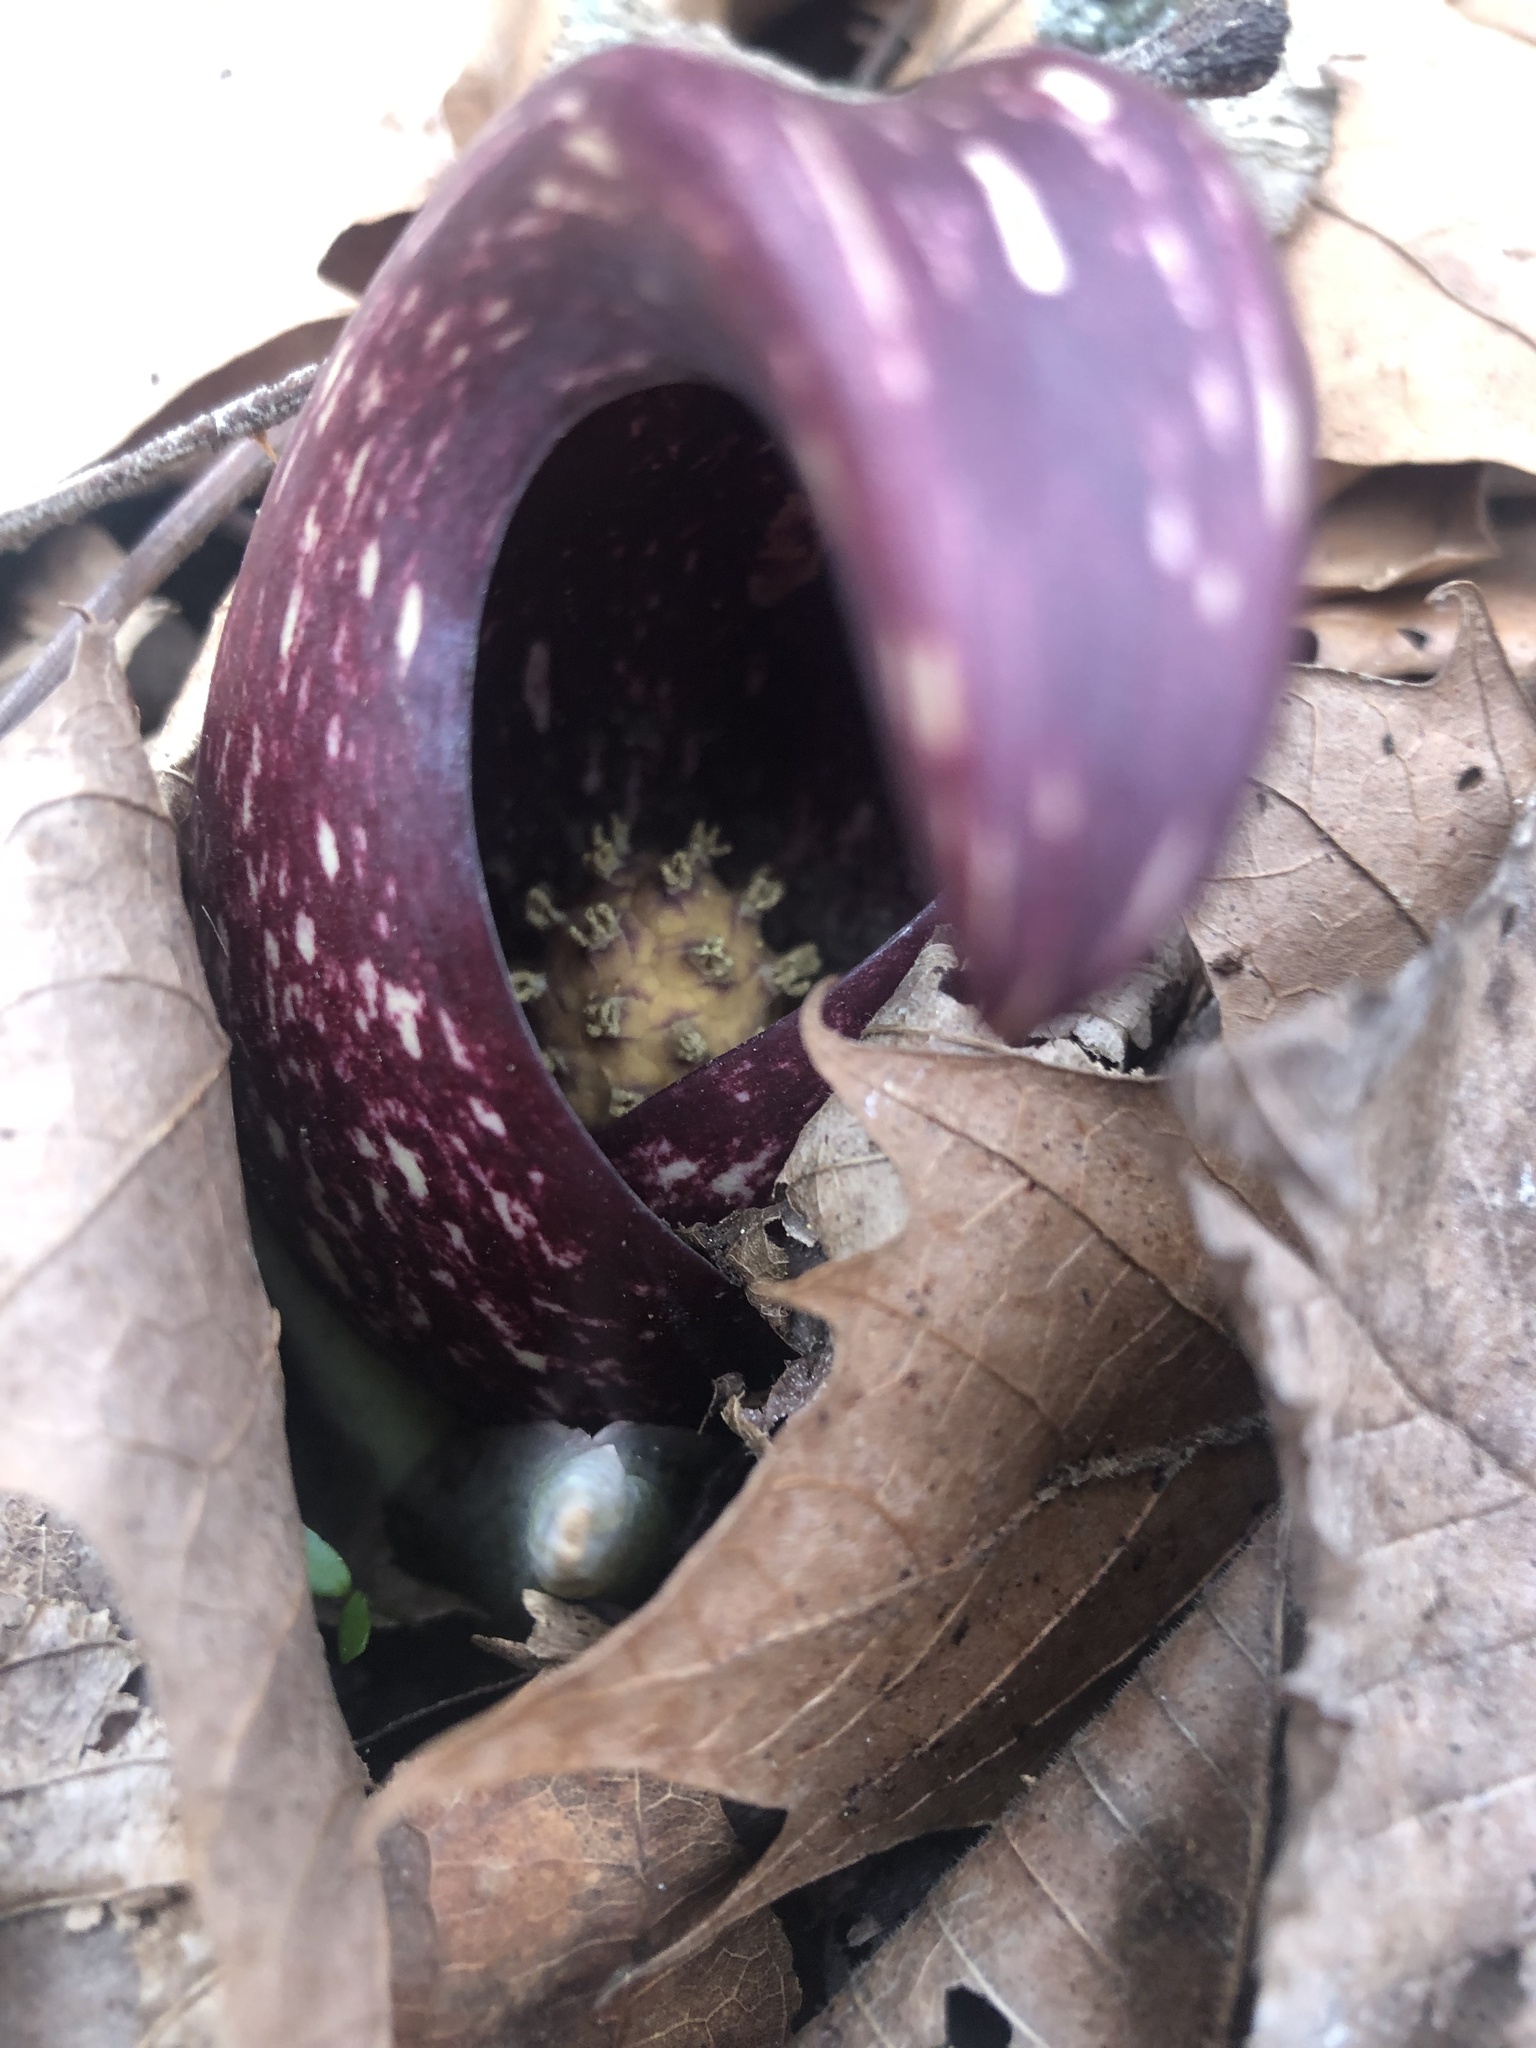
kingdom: Plantae
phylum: Tracheophyta
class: Liliopsida
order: Alismatales
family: Araceae
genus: Symplocarpus
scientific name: Symplocarpus foetidus
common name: Eastern skunk cabbage
